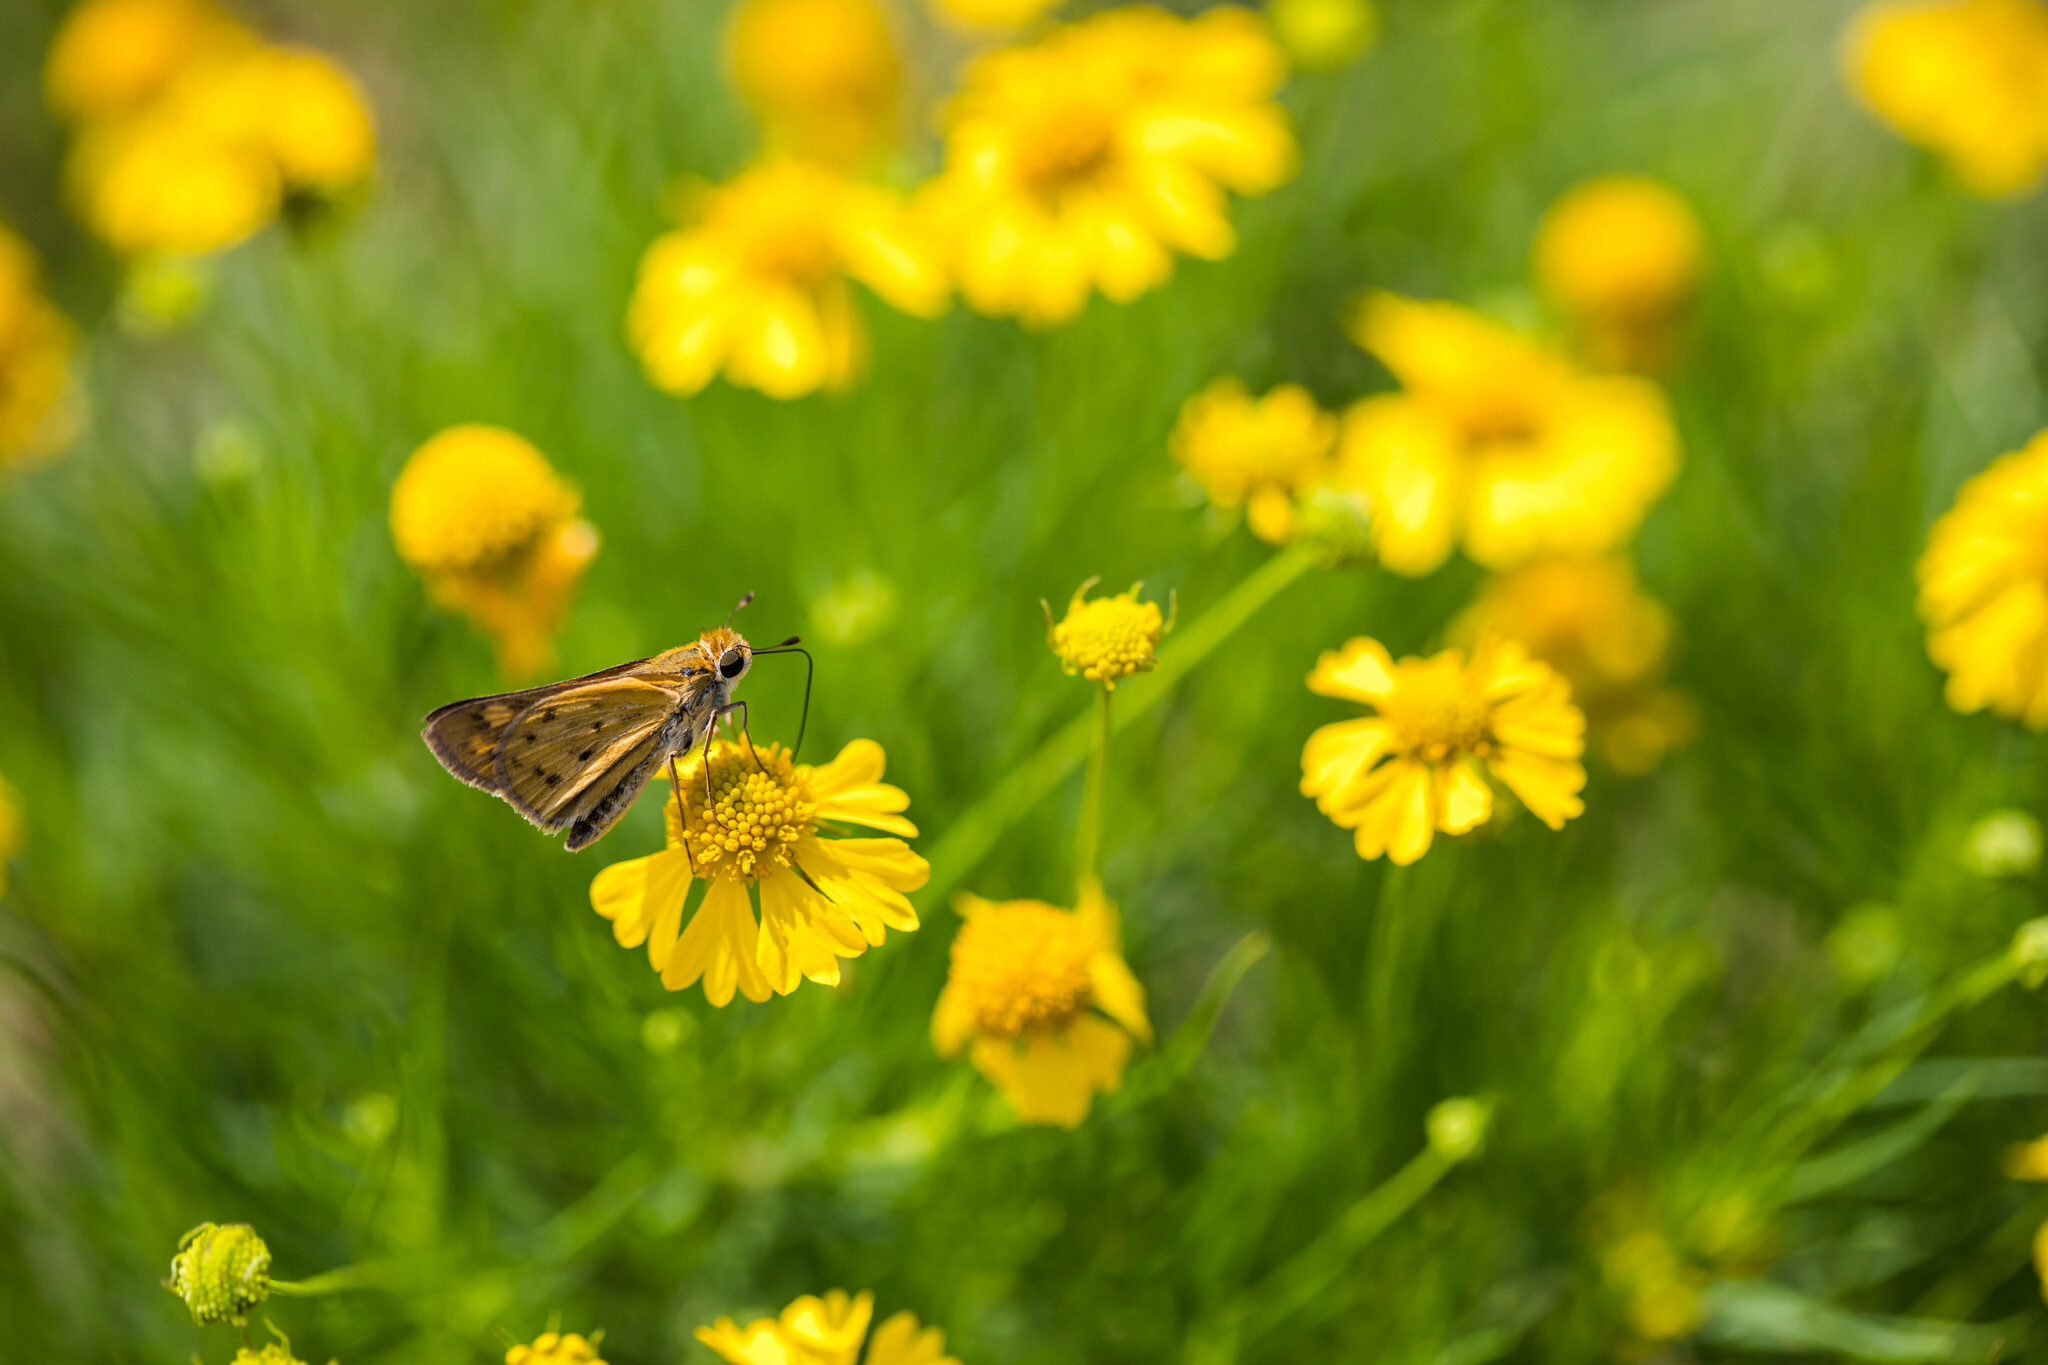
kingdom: Animalia
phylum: Arthropoda
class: Insecta
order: Lepidoptera
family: Hesperiidae
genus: Hylephila
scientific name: Hylephila phyleus
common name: Fiery skipper
